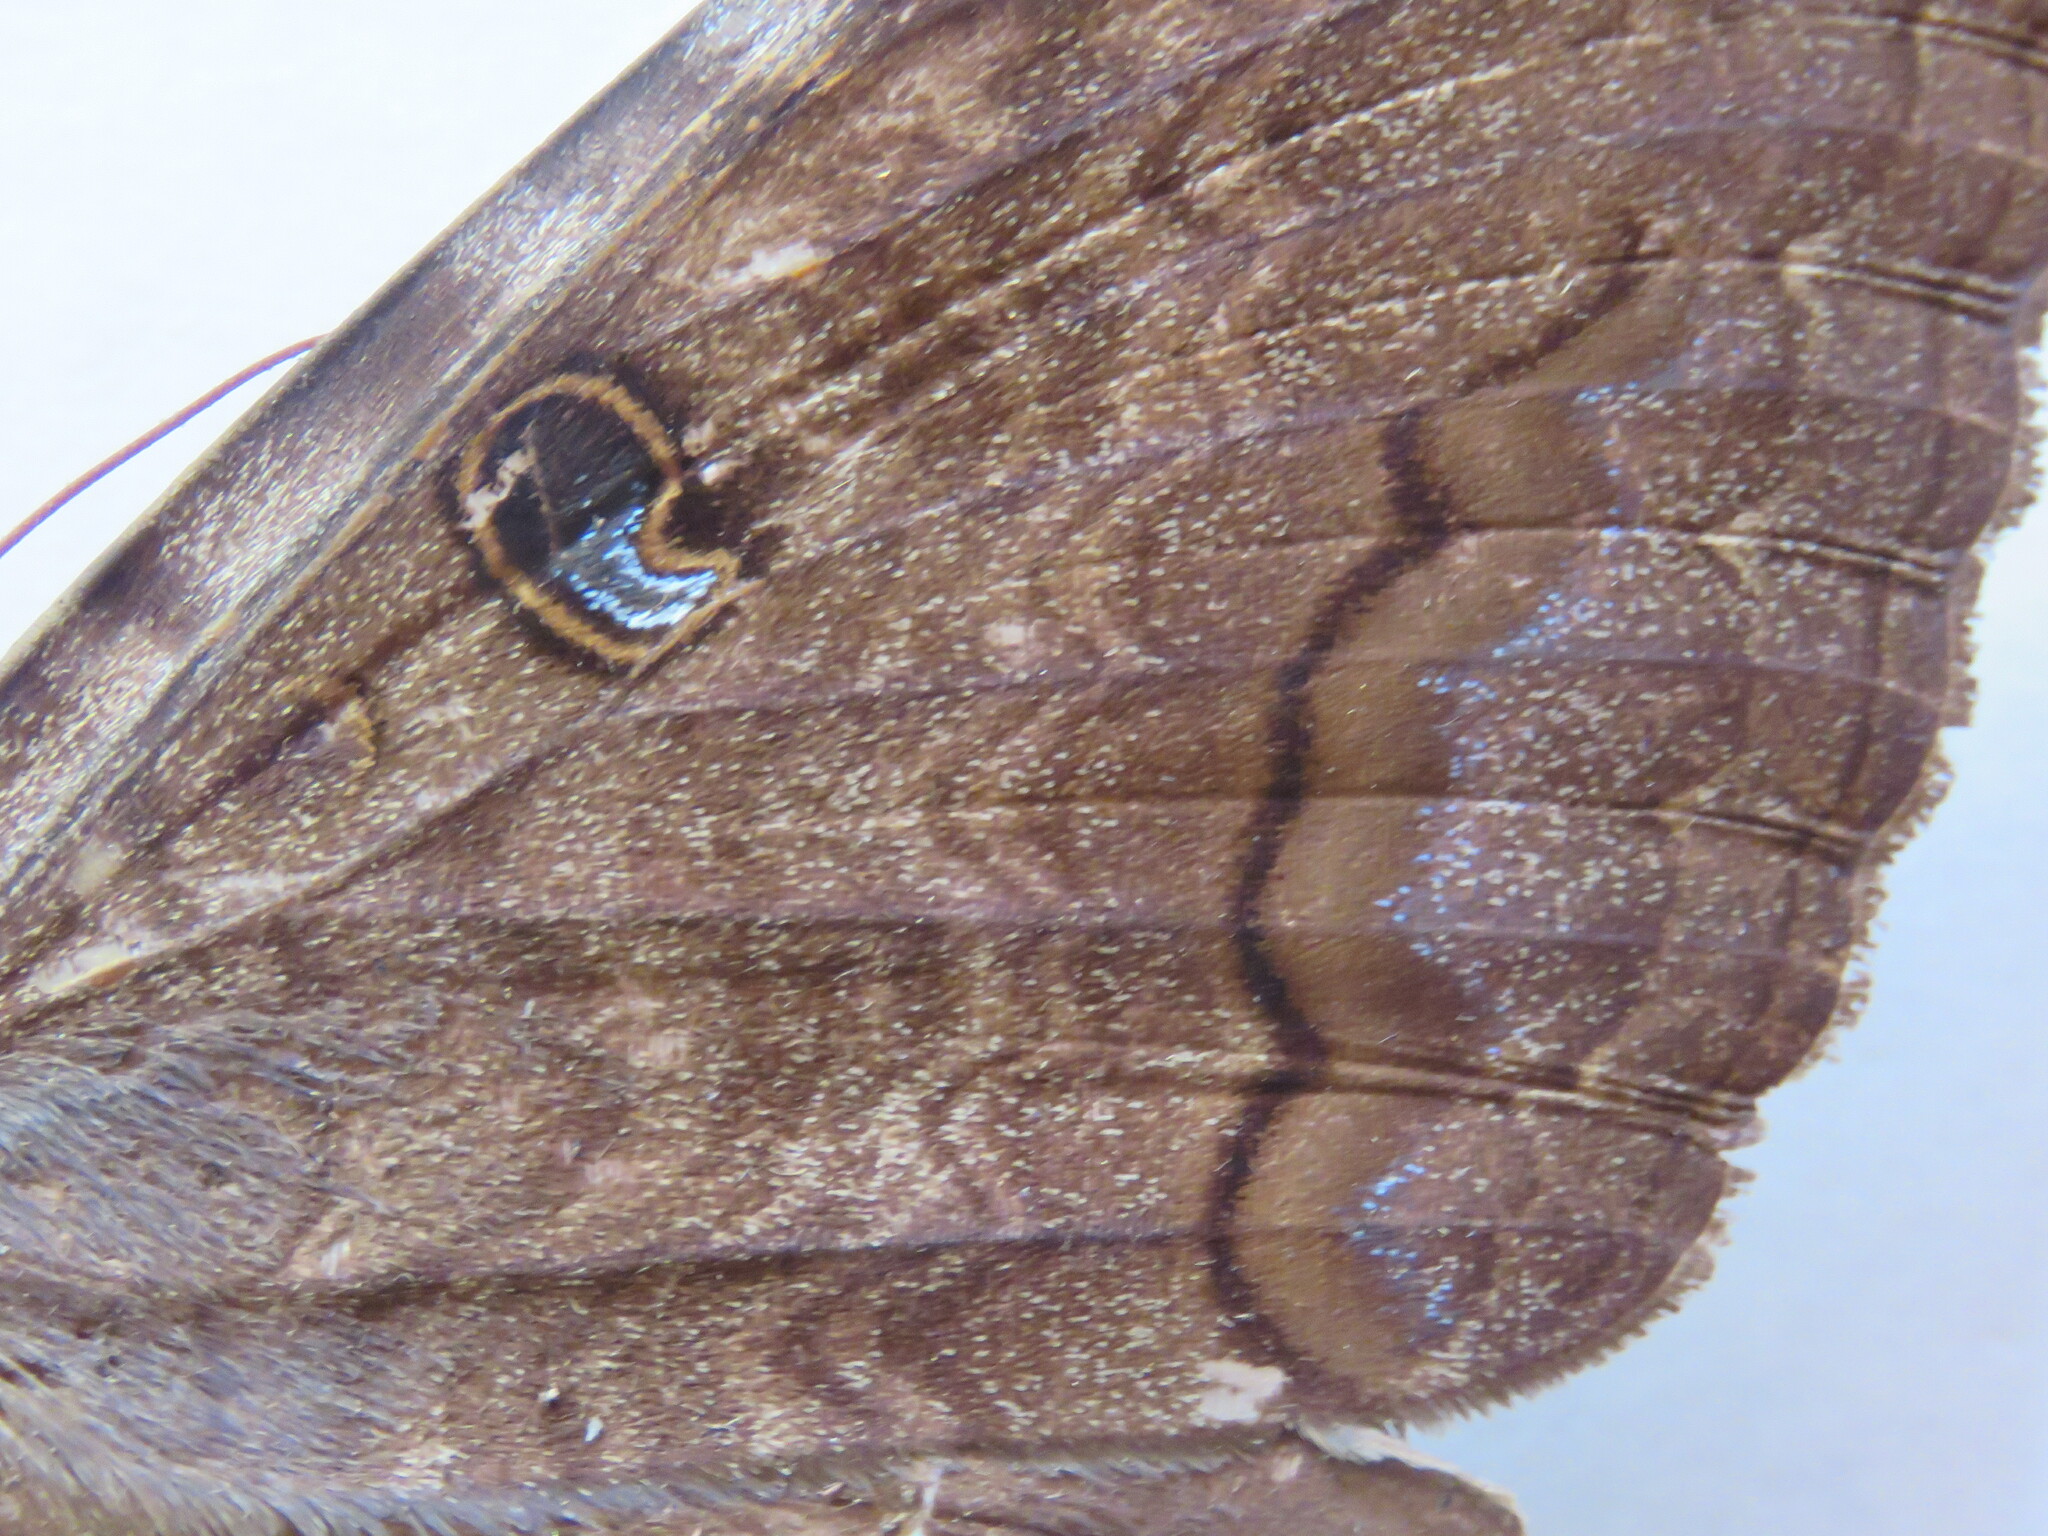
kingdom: Animalia
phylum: Arthropoda
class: Insecta
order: Lepidoptera
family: Erebidae
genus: Ascalapha
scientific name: Ascalapha odorata
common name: Black witch
